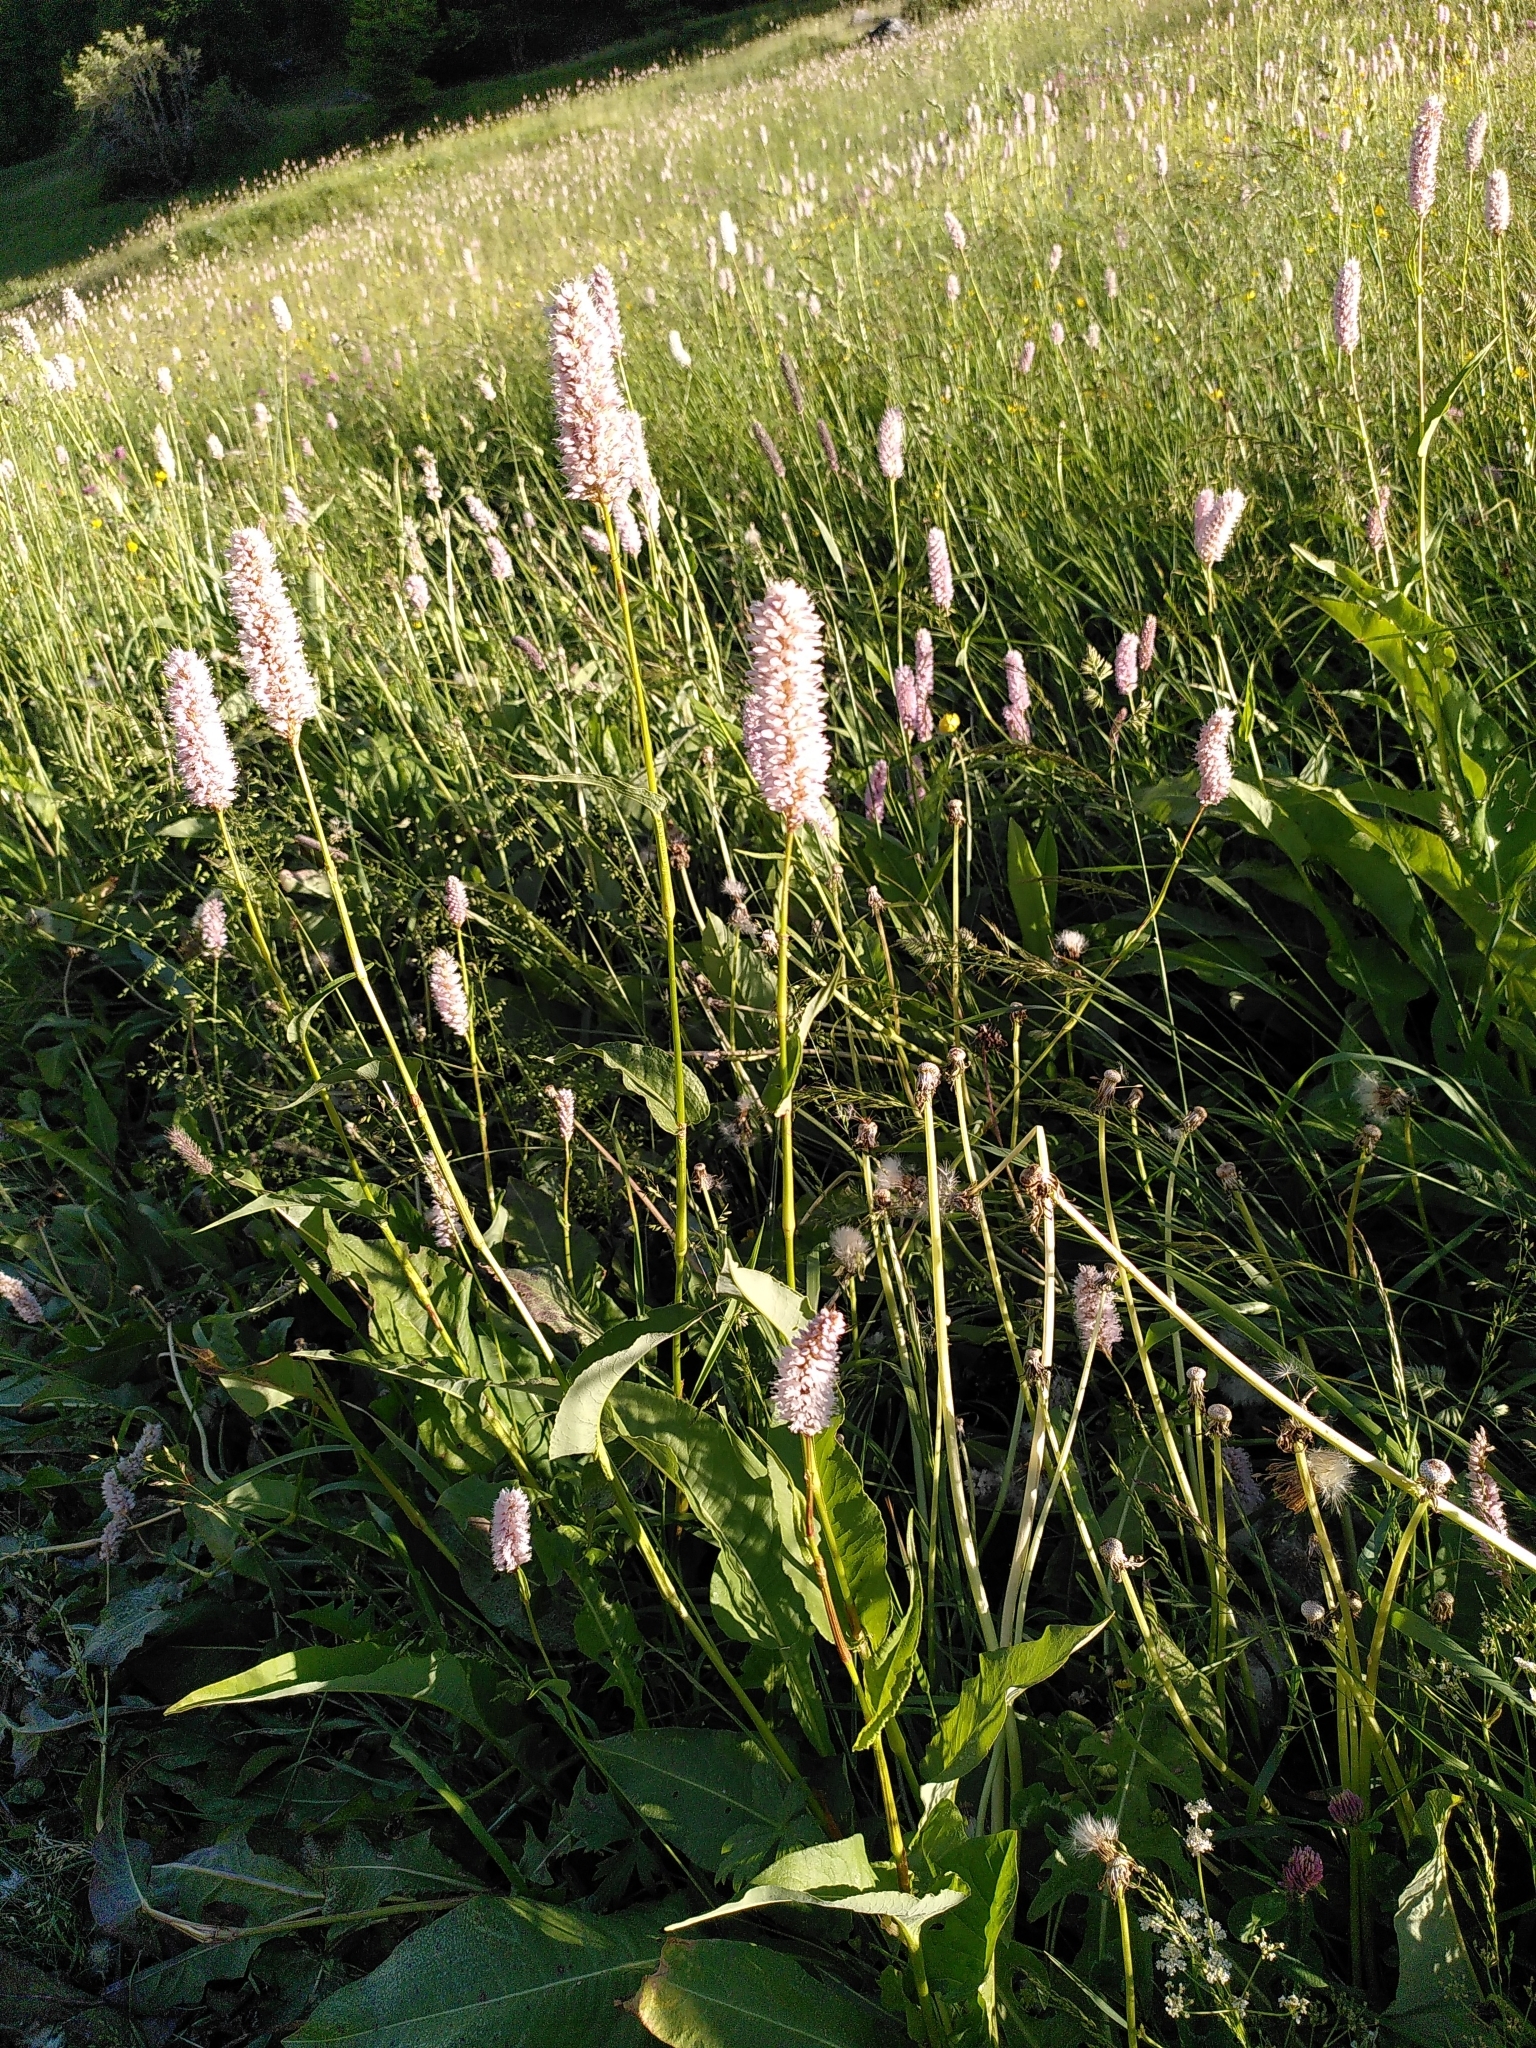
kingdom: Plantae
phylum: Tracheophyta
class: Magnoliopsida
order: Caryophyllales
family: Polygonaceae
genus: Bistorta
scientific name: Bistorta officinalis
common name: Common bistort
